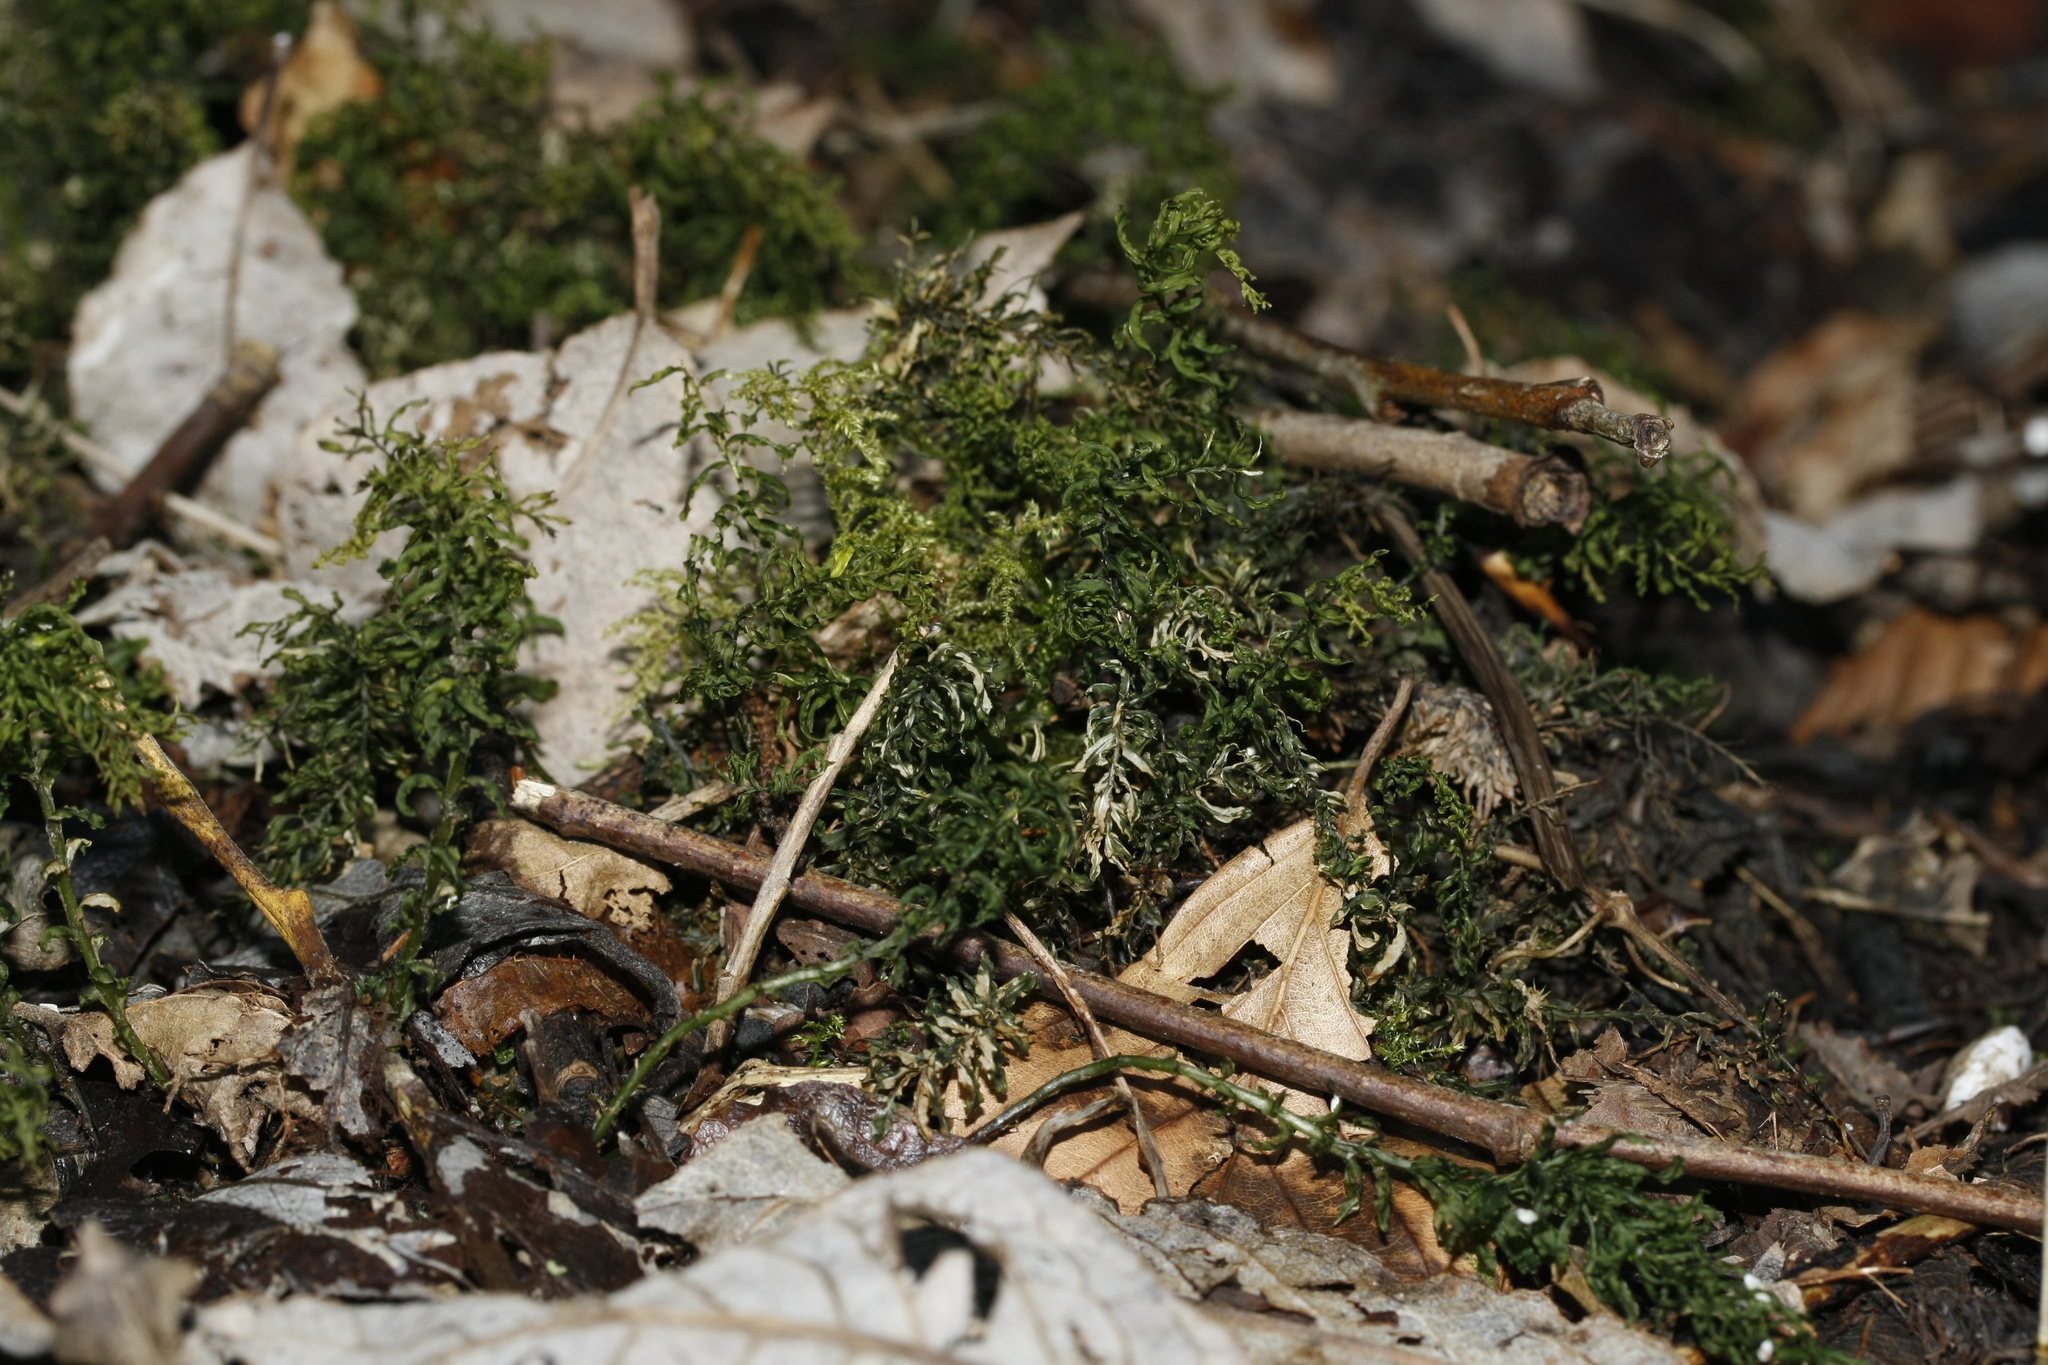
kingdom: Plantae
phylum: Bryophyta
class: Bryopsida
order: Bryales
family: Mniaceae
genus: Plagiomnium
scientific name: Plagiomnium undulatum
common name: Hart's-tongue thyme-moss
